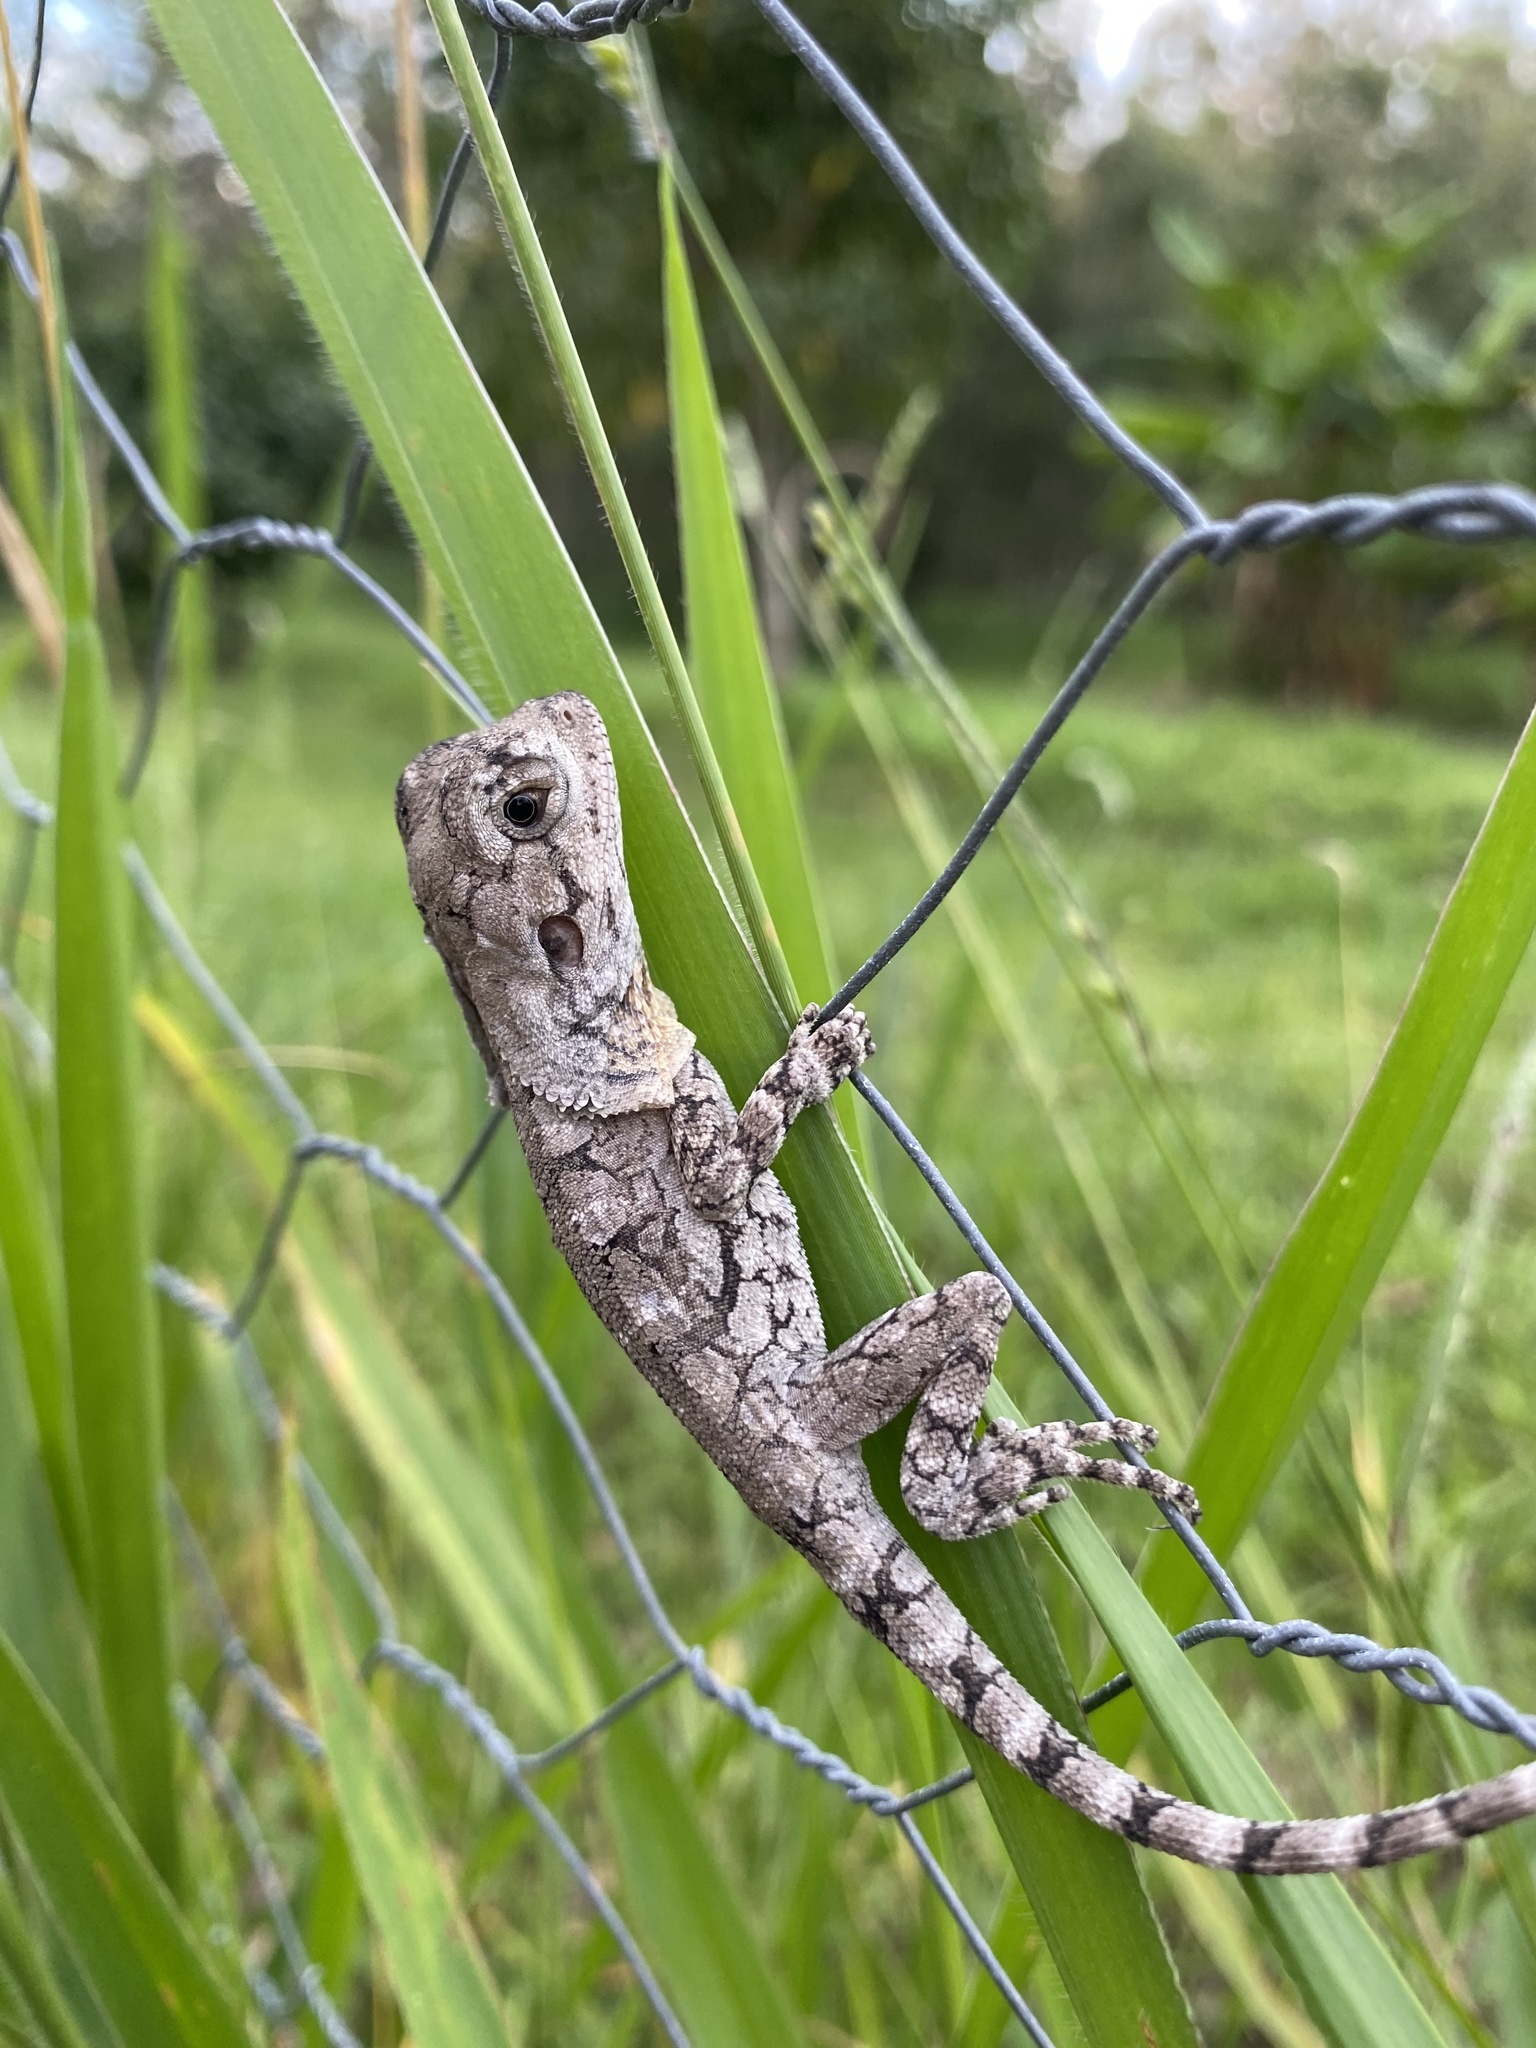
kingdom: Animalia
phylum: Chordata
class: Squamata
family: Agamidae
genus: Chlamydosaurus
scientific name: Chlamydosaurus kingii
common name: Frilled lizard
